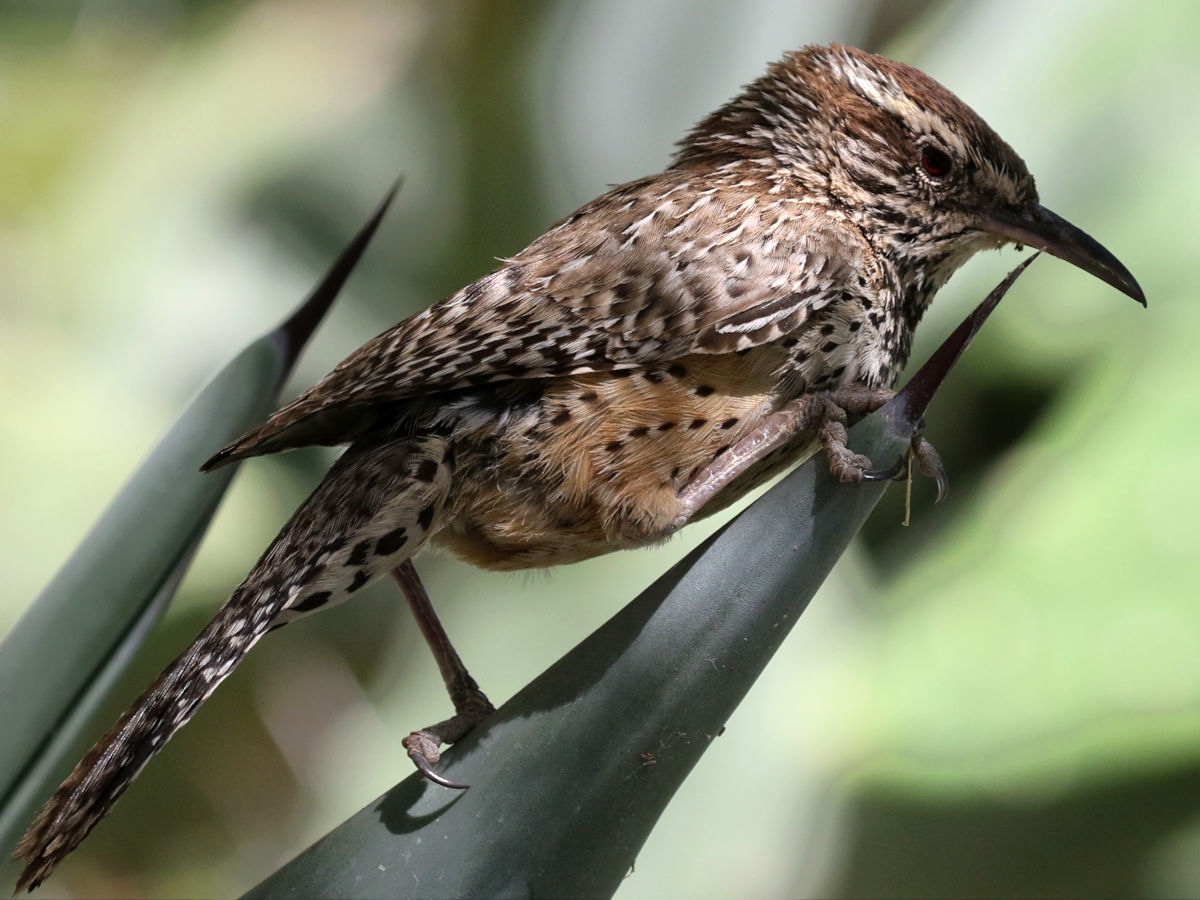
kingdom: Animalia
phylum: Chordata
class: Aves
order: Passeriformes
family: Troglodytidae
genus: Campylorhynchus
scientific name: Campylorhynchus brunneicapillus
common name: Cactus wren
